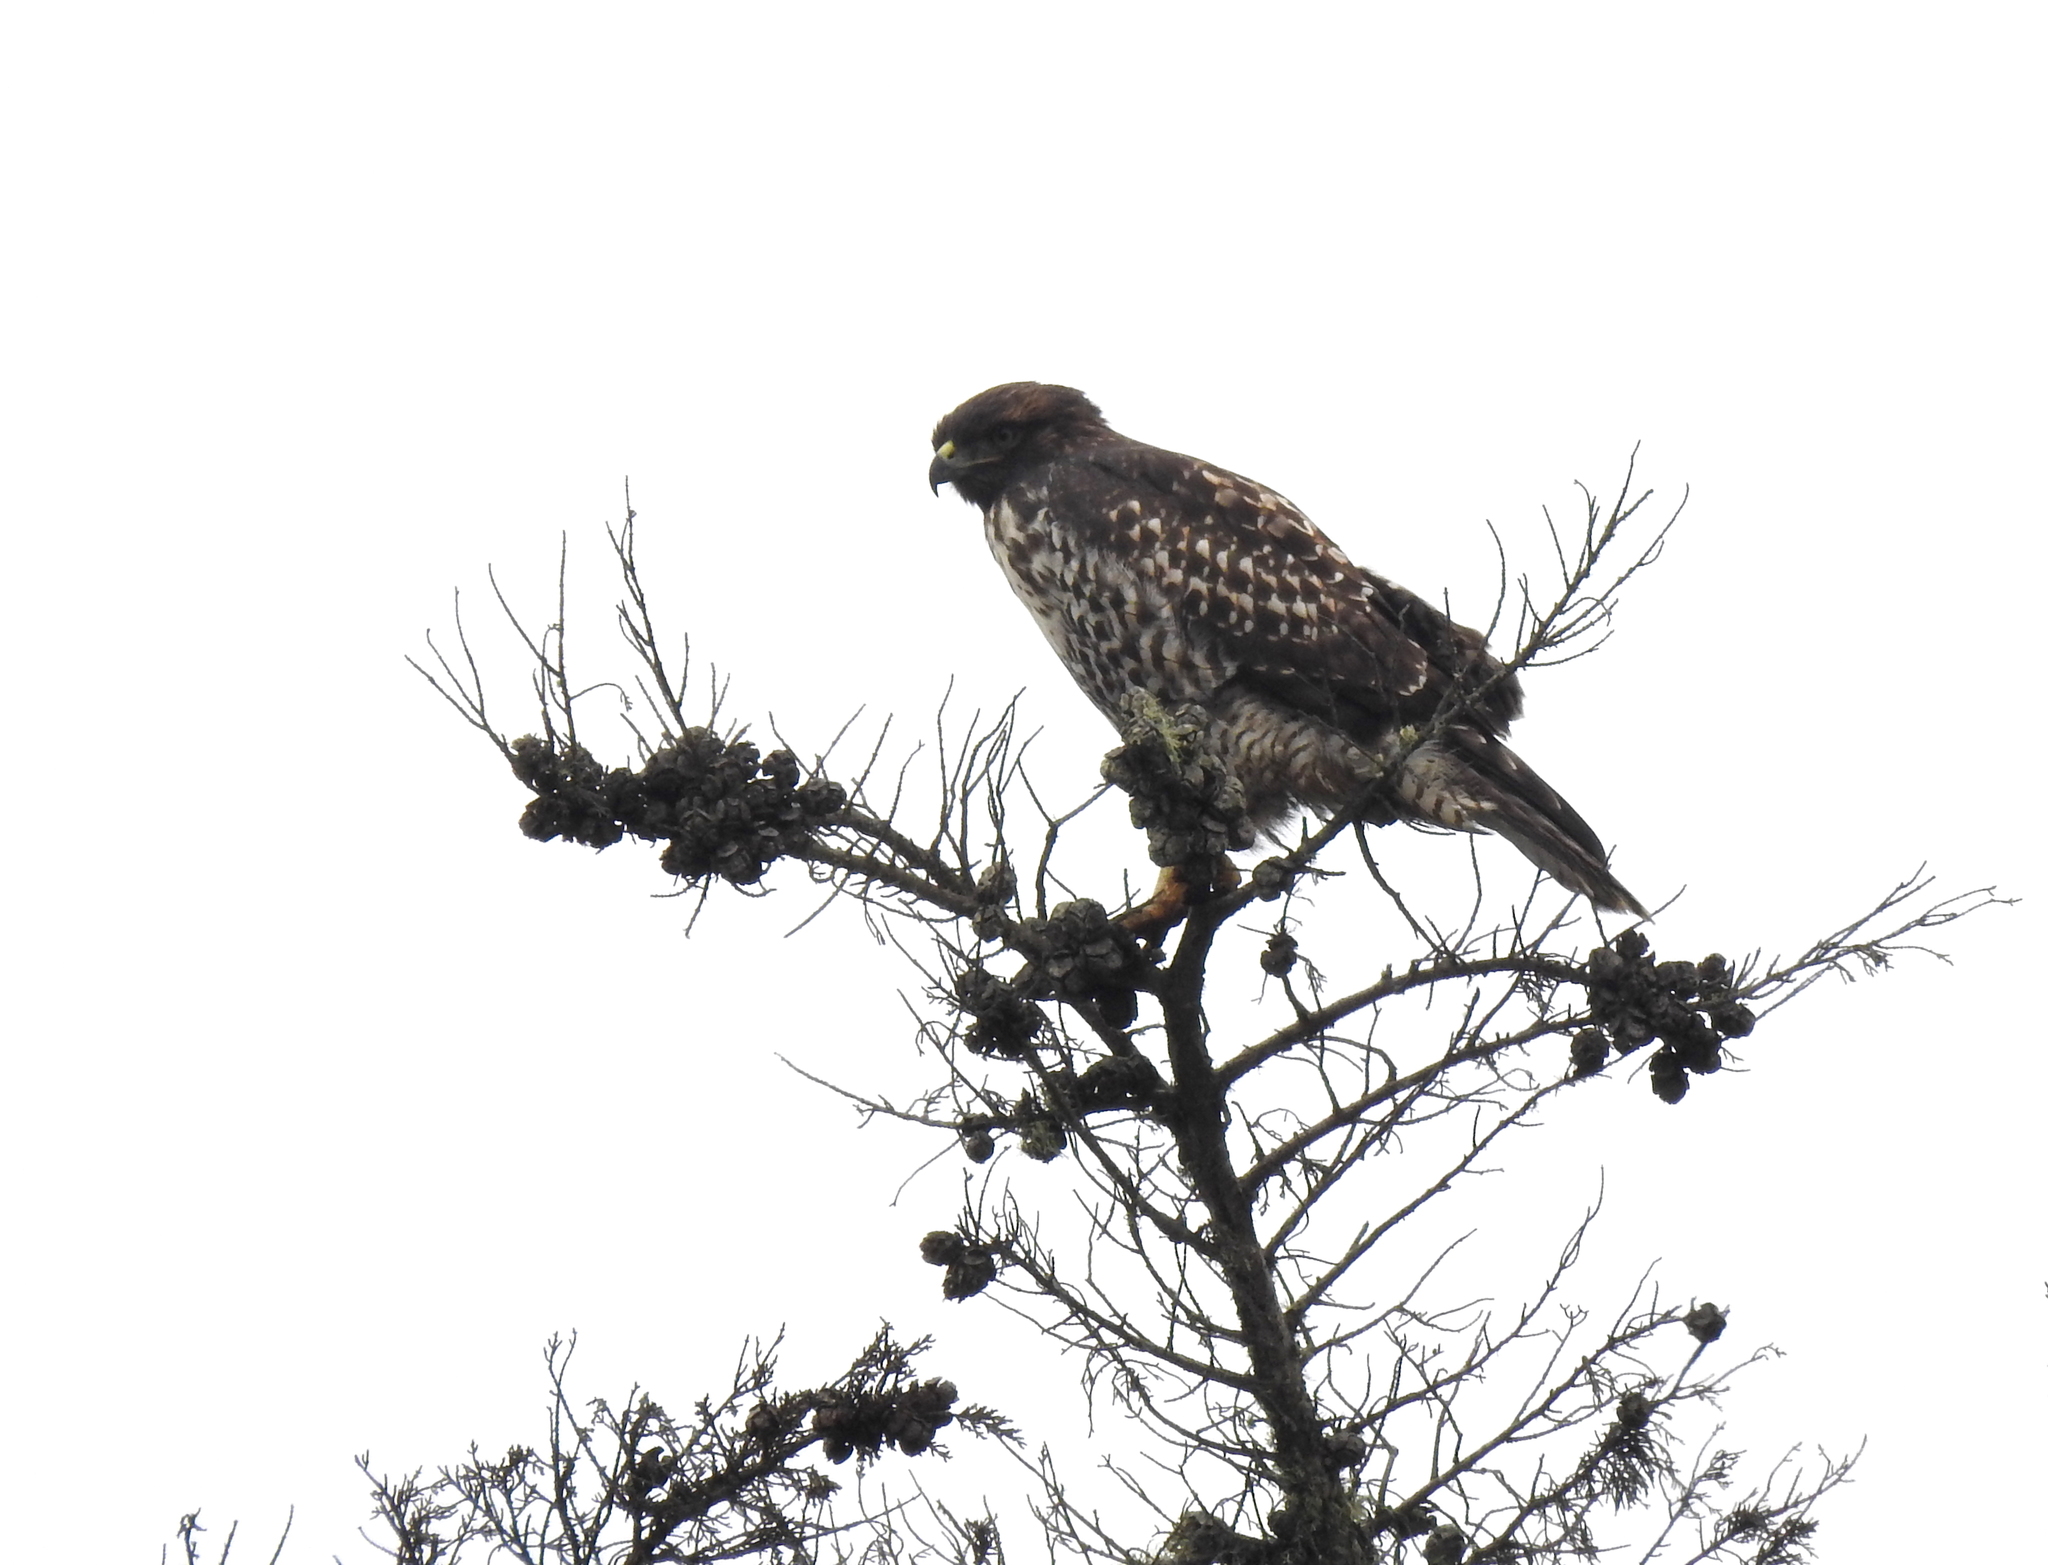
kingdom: Animalia
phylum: Chordata
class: Aves
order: Accipitriformes
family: Accipitridae
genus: Buteo
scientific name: Buteo jamaicensis
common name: Red-tailed hawk
